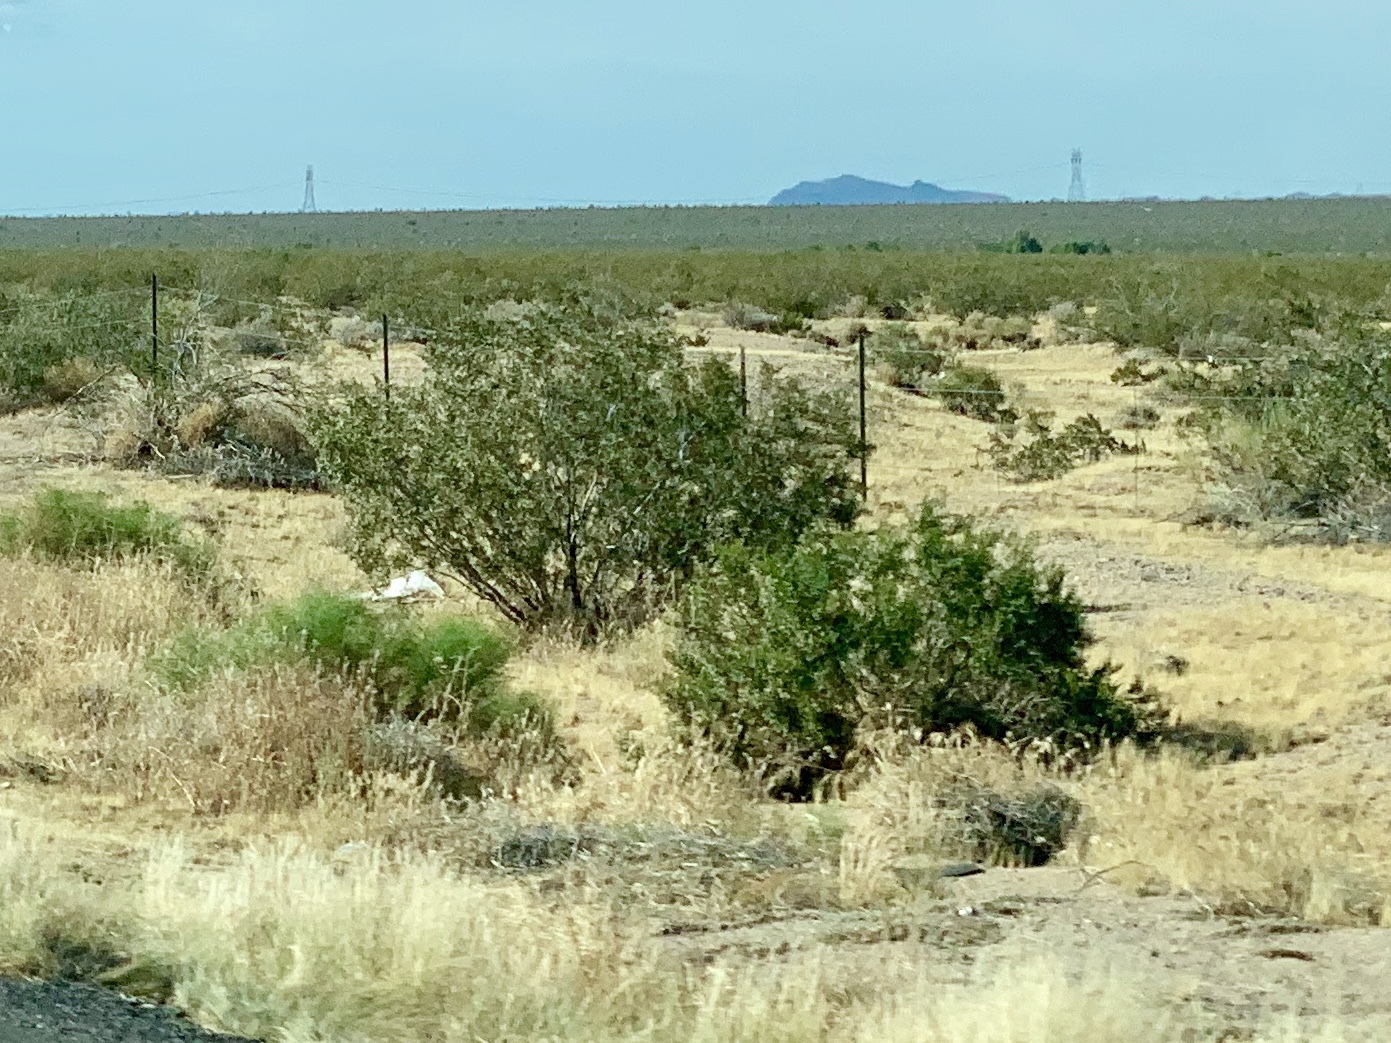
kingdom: Plantae
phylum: Tracheophyta
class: Magnoliopsida
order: Zygophyllales
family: Zygophyllaceae
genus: Larrea
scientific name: Larrea tridentata
